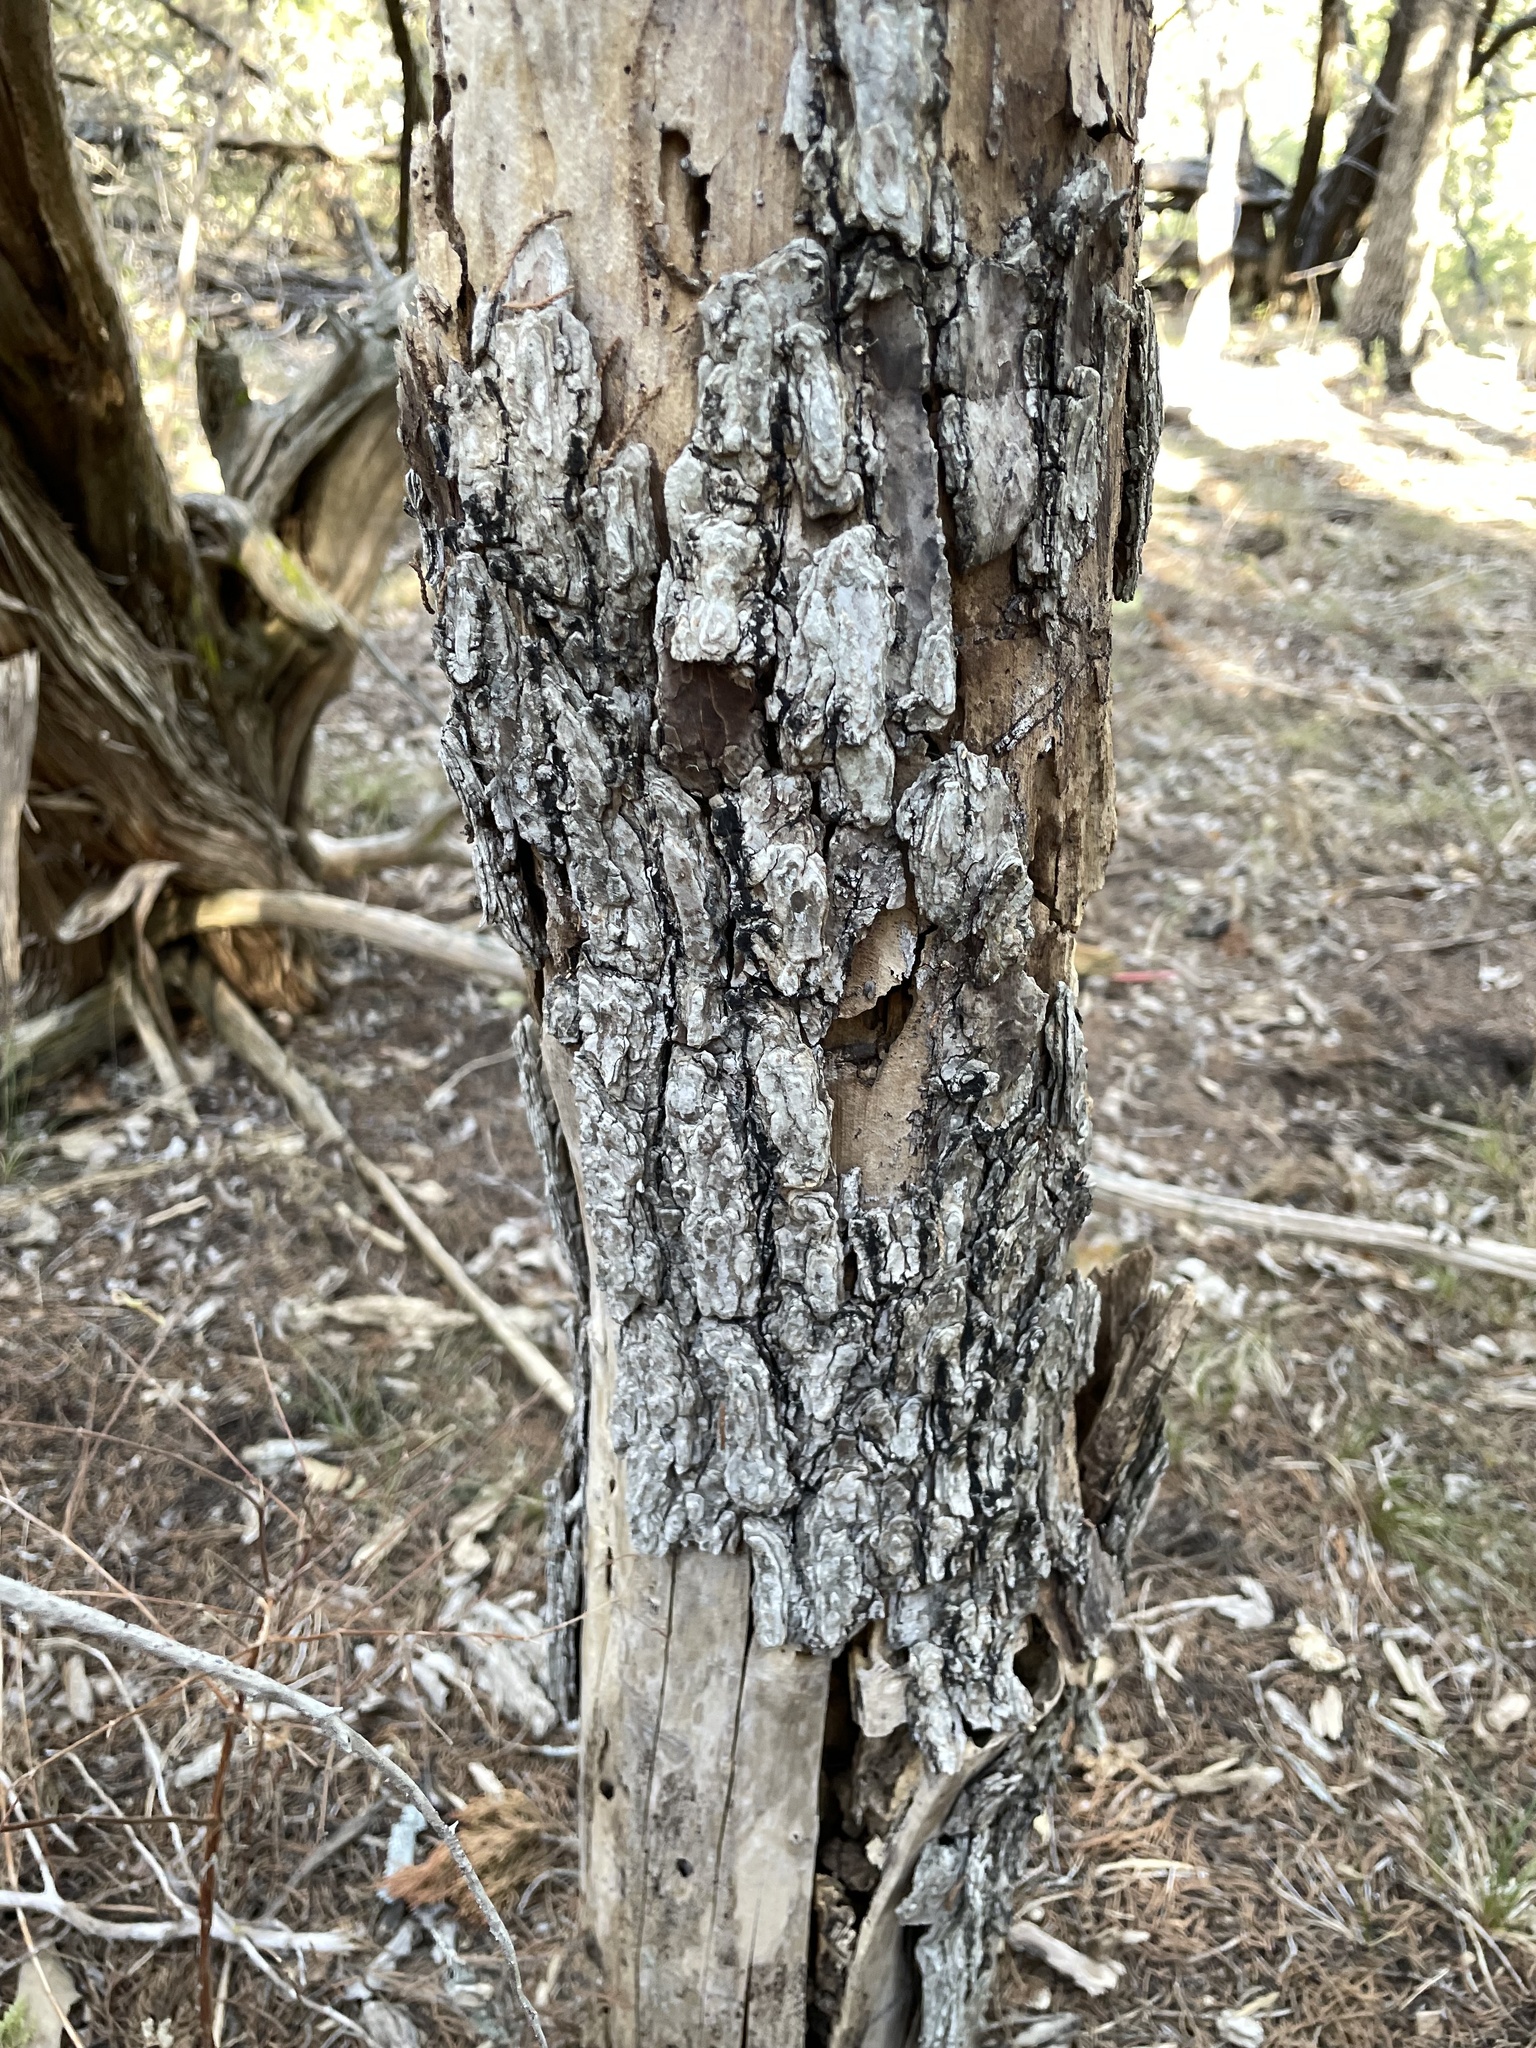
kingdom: Plantae
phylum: Tracheophyta
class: Magnoliopsida
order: Rosales
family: Ulmaceae
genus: Ulmus
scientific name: Ulmus crassifolia
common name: Basket elm
